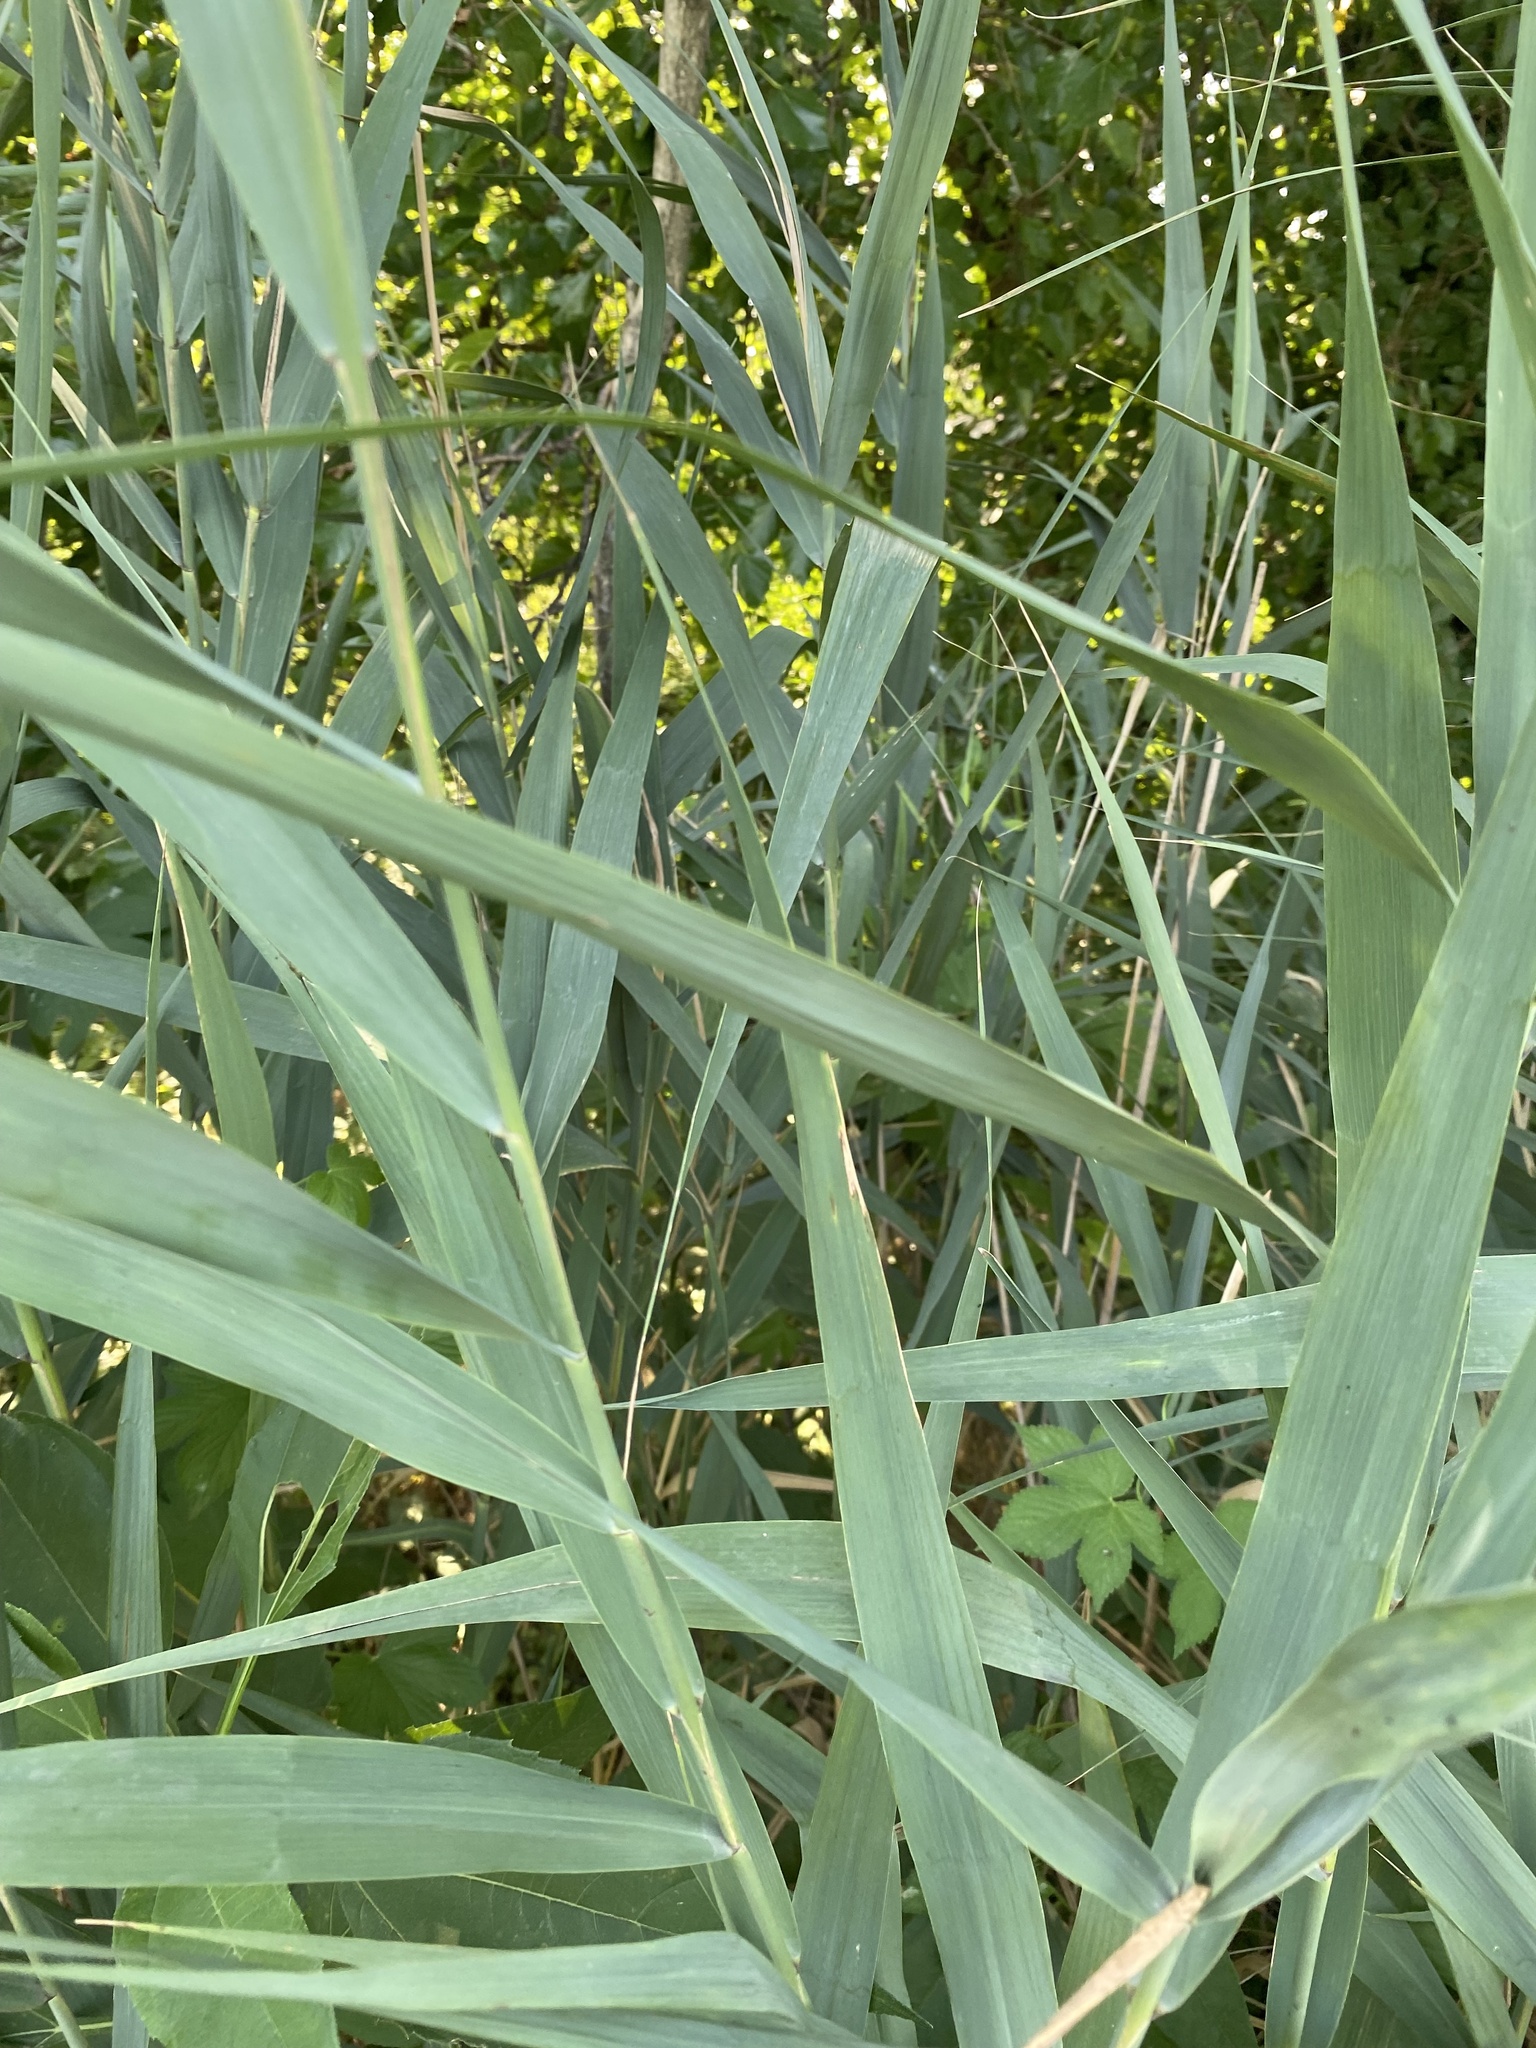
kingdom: Plantae
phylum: Tracheophyta
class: Liliopsida
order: Poales
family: Poaceae
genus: Phragmites
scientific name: Phragmites australis
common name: Common reed
